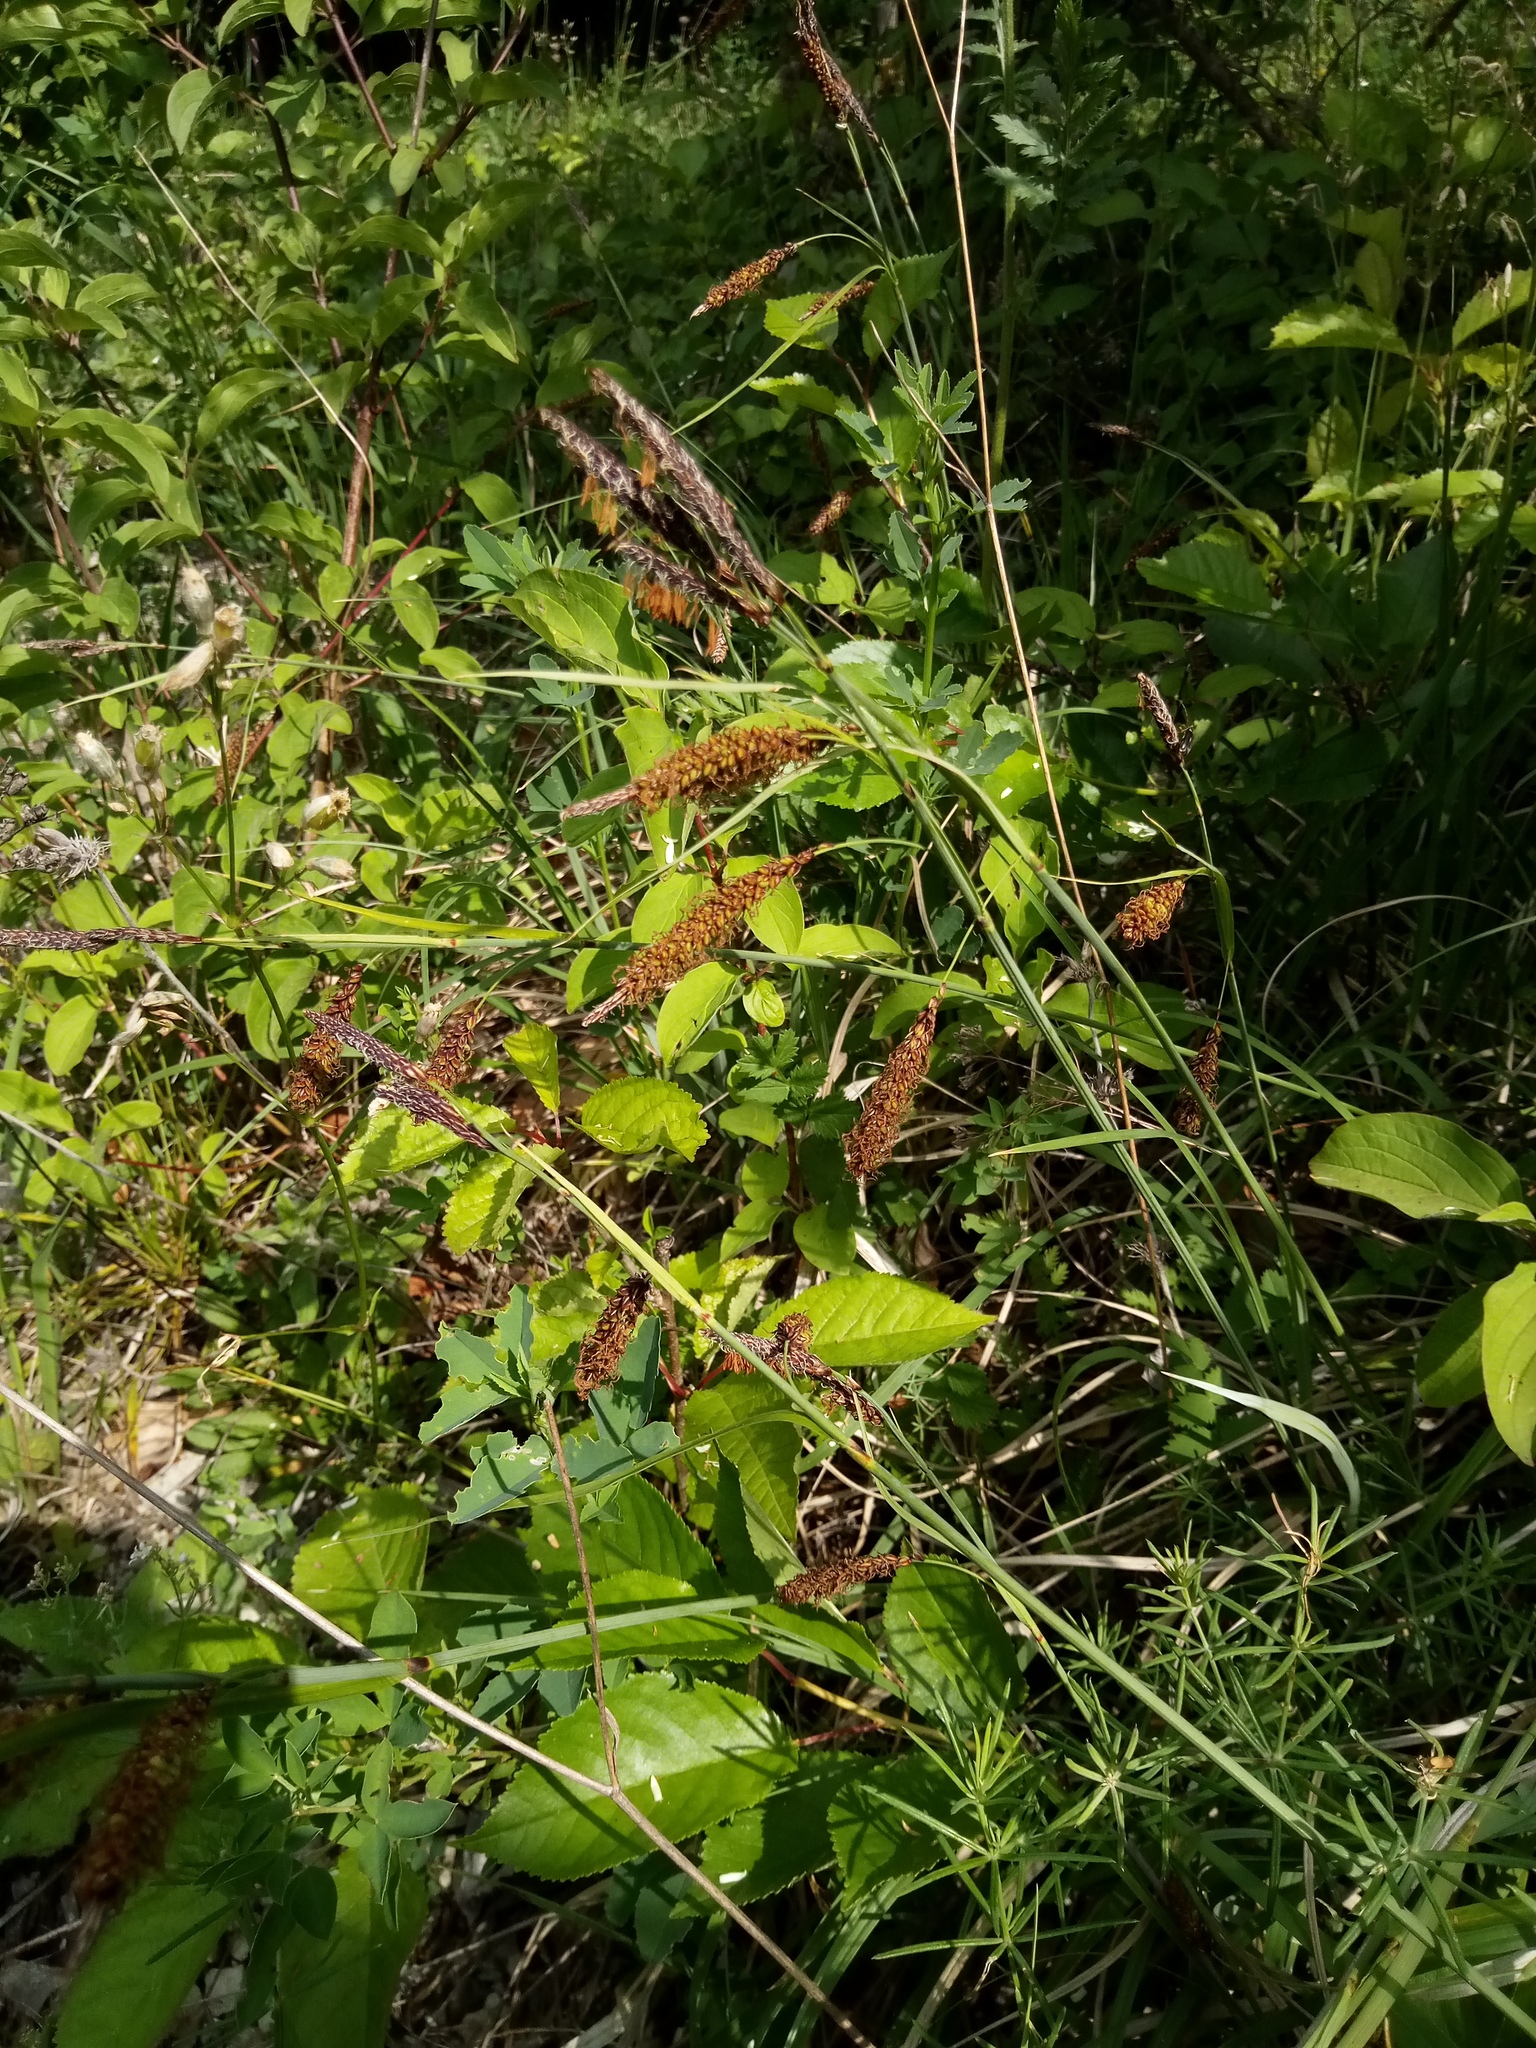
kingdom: Plantae
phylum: Tracheophyta
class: Liliopsida
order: Poales
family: Cyperaceae
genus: Carex
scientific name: Carex flacca
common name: Glaucous sedge
